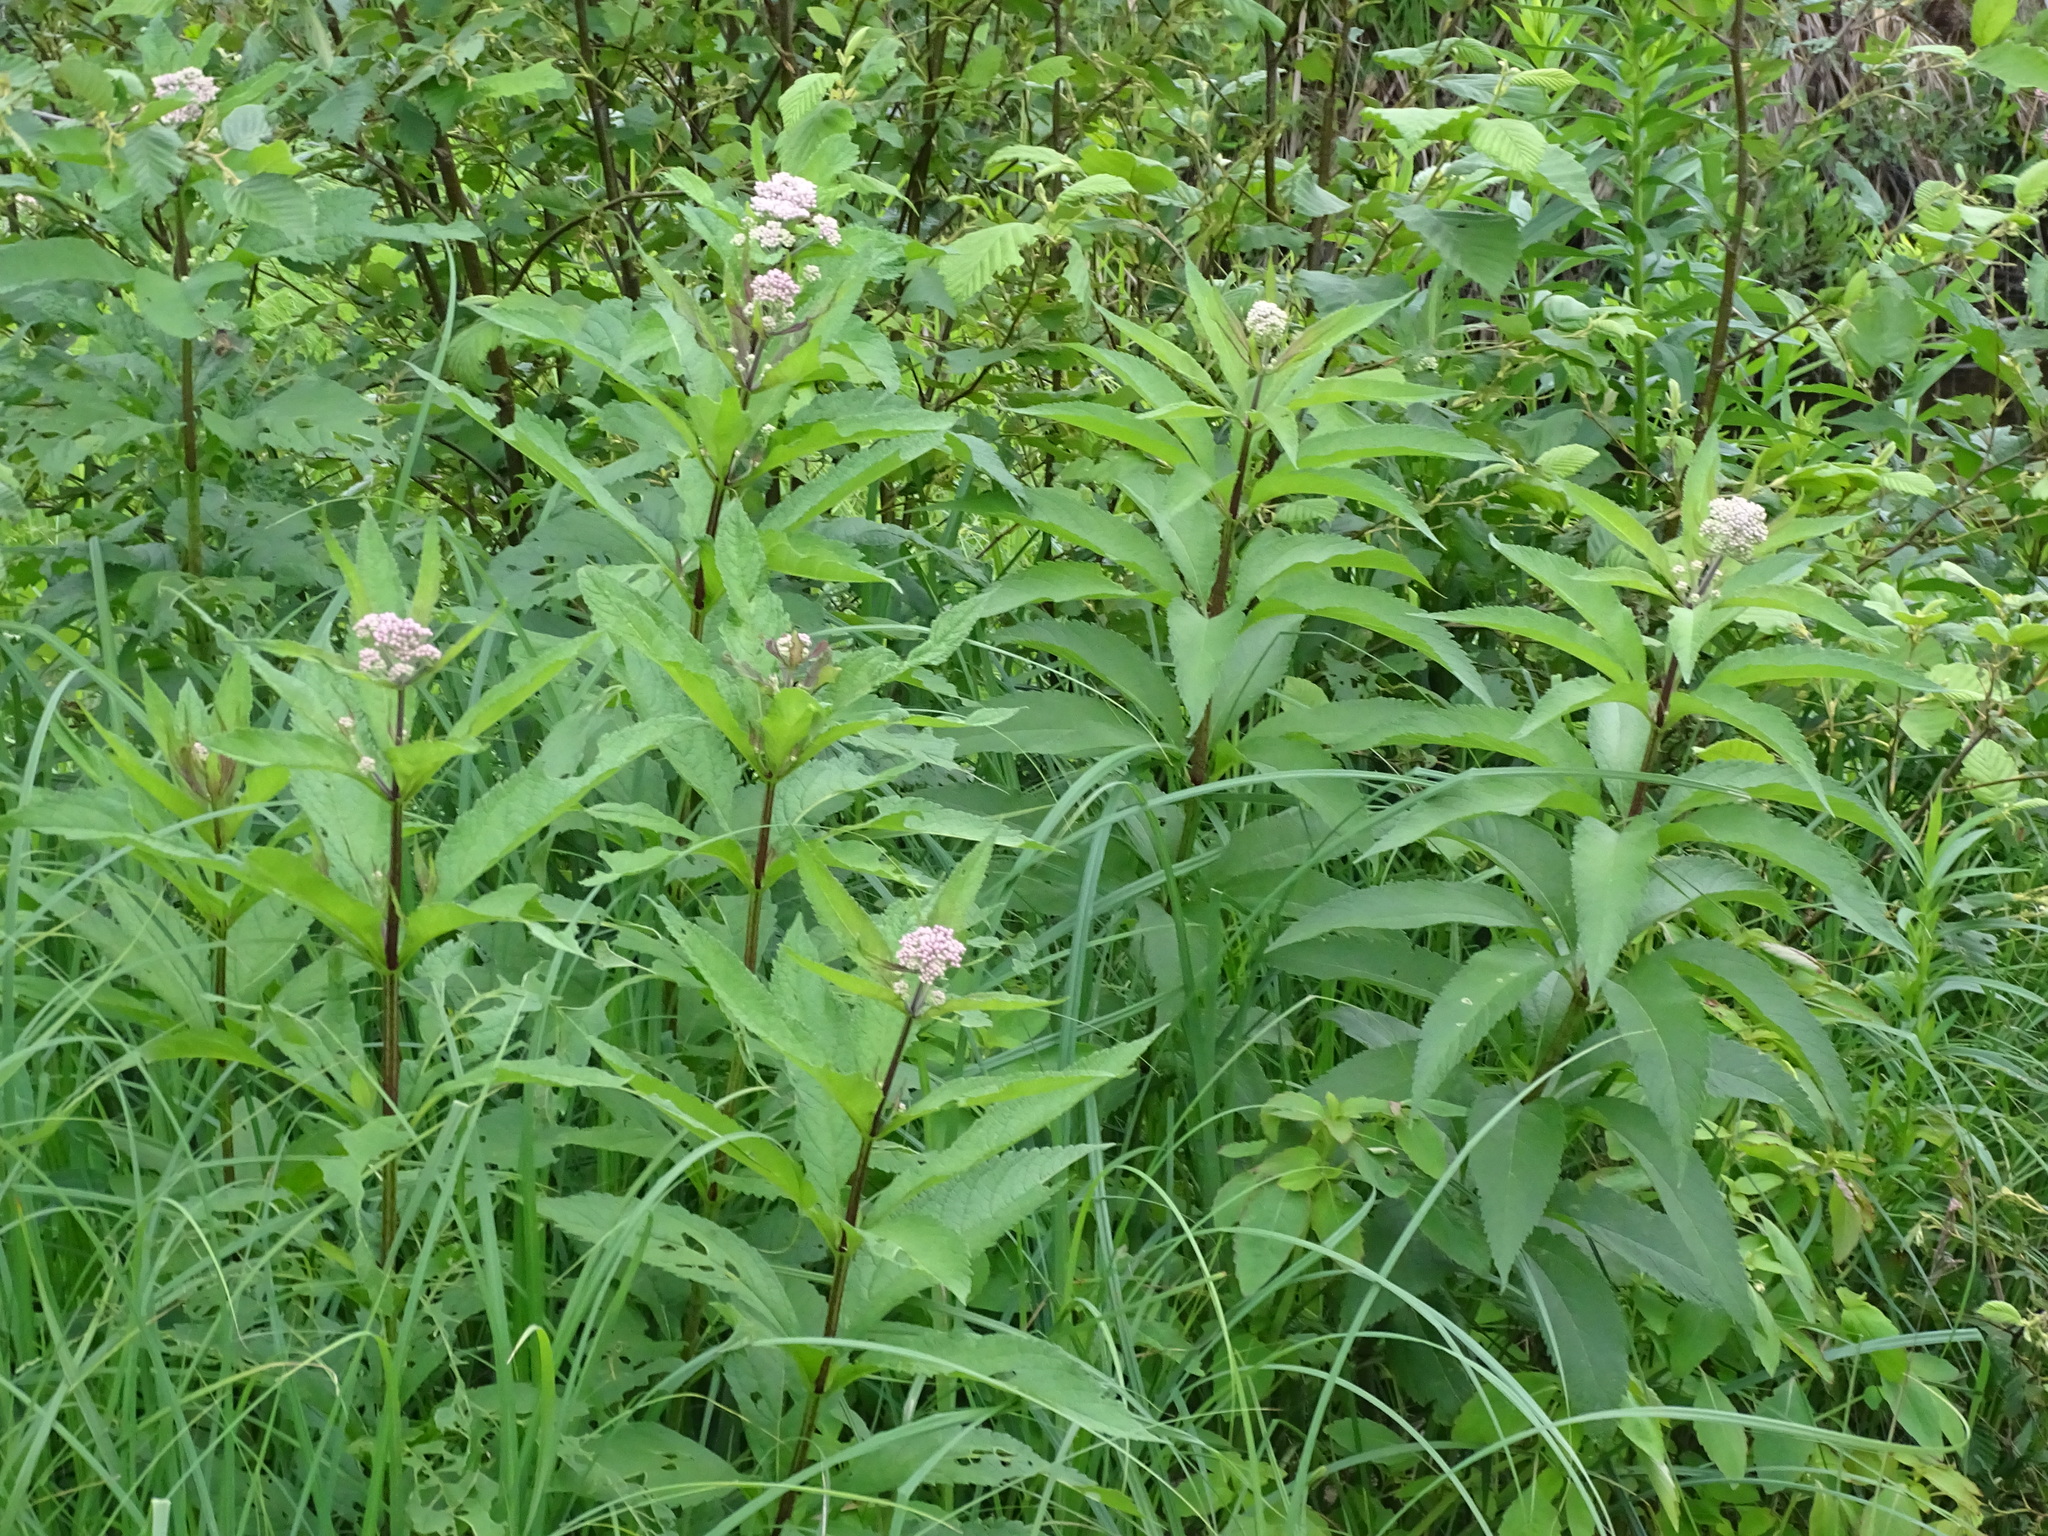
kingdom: Plantae
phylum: Tracheophyta
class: Magnoliopsida
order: Asterales
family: Asteraceae
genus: Eutrochium
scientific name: Eutrochium maculatum
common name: Spotted joe pye weed
